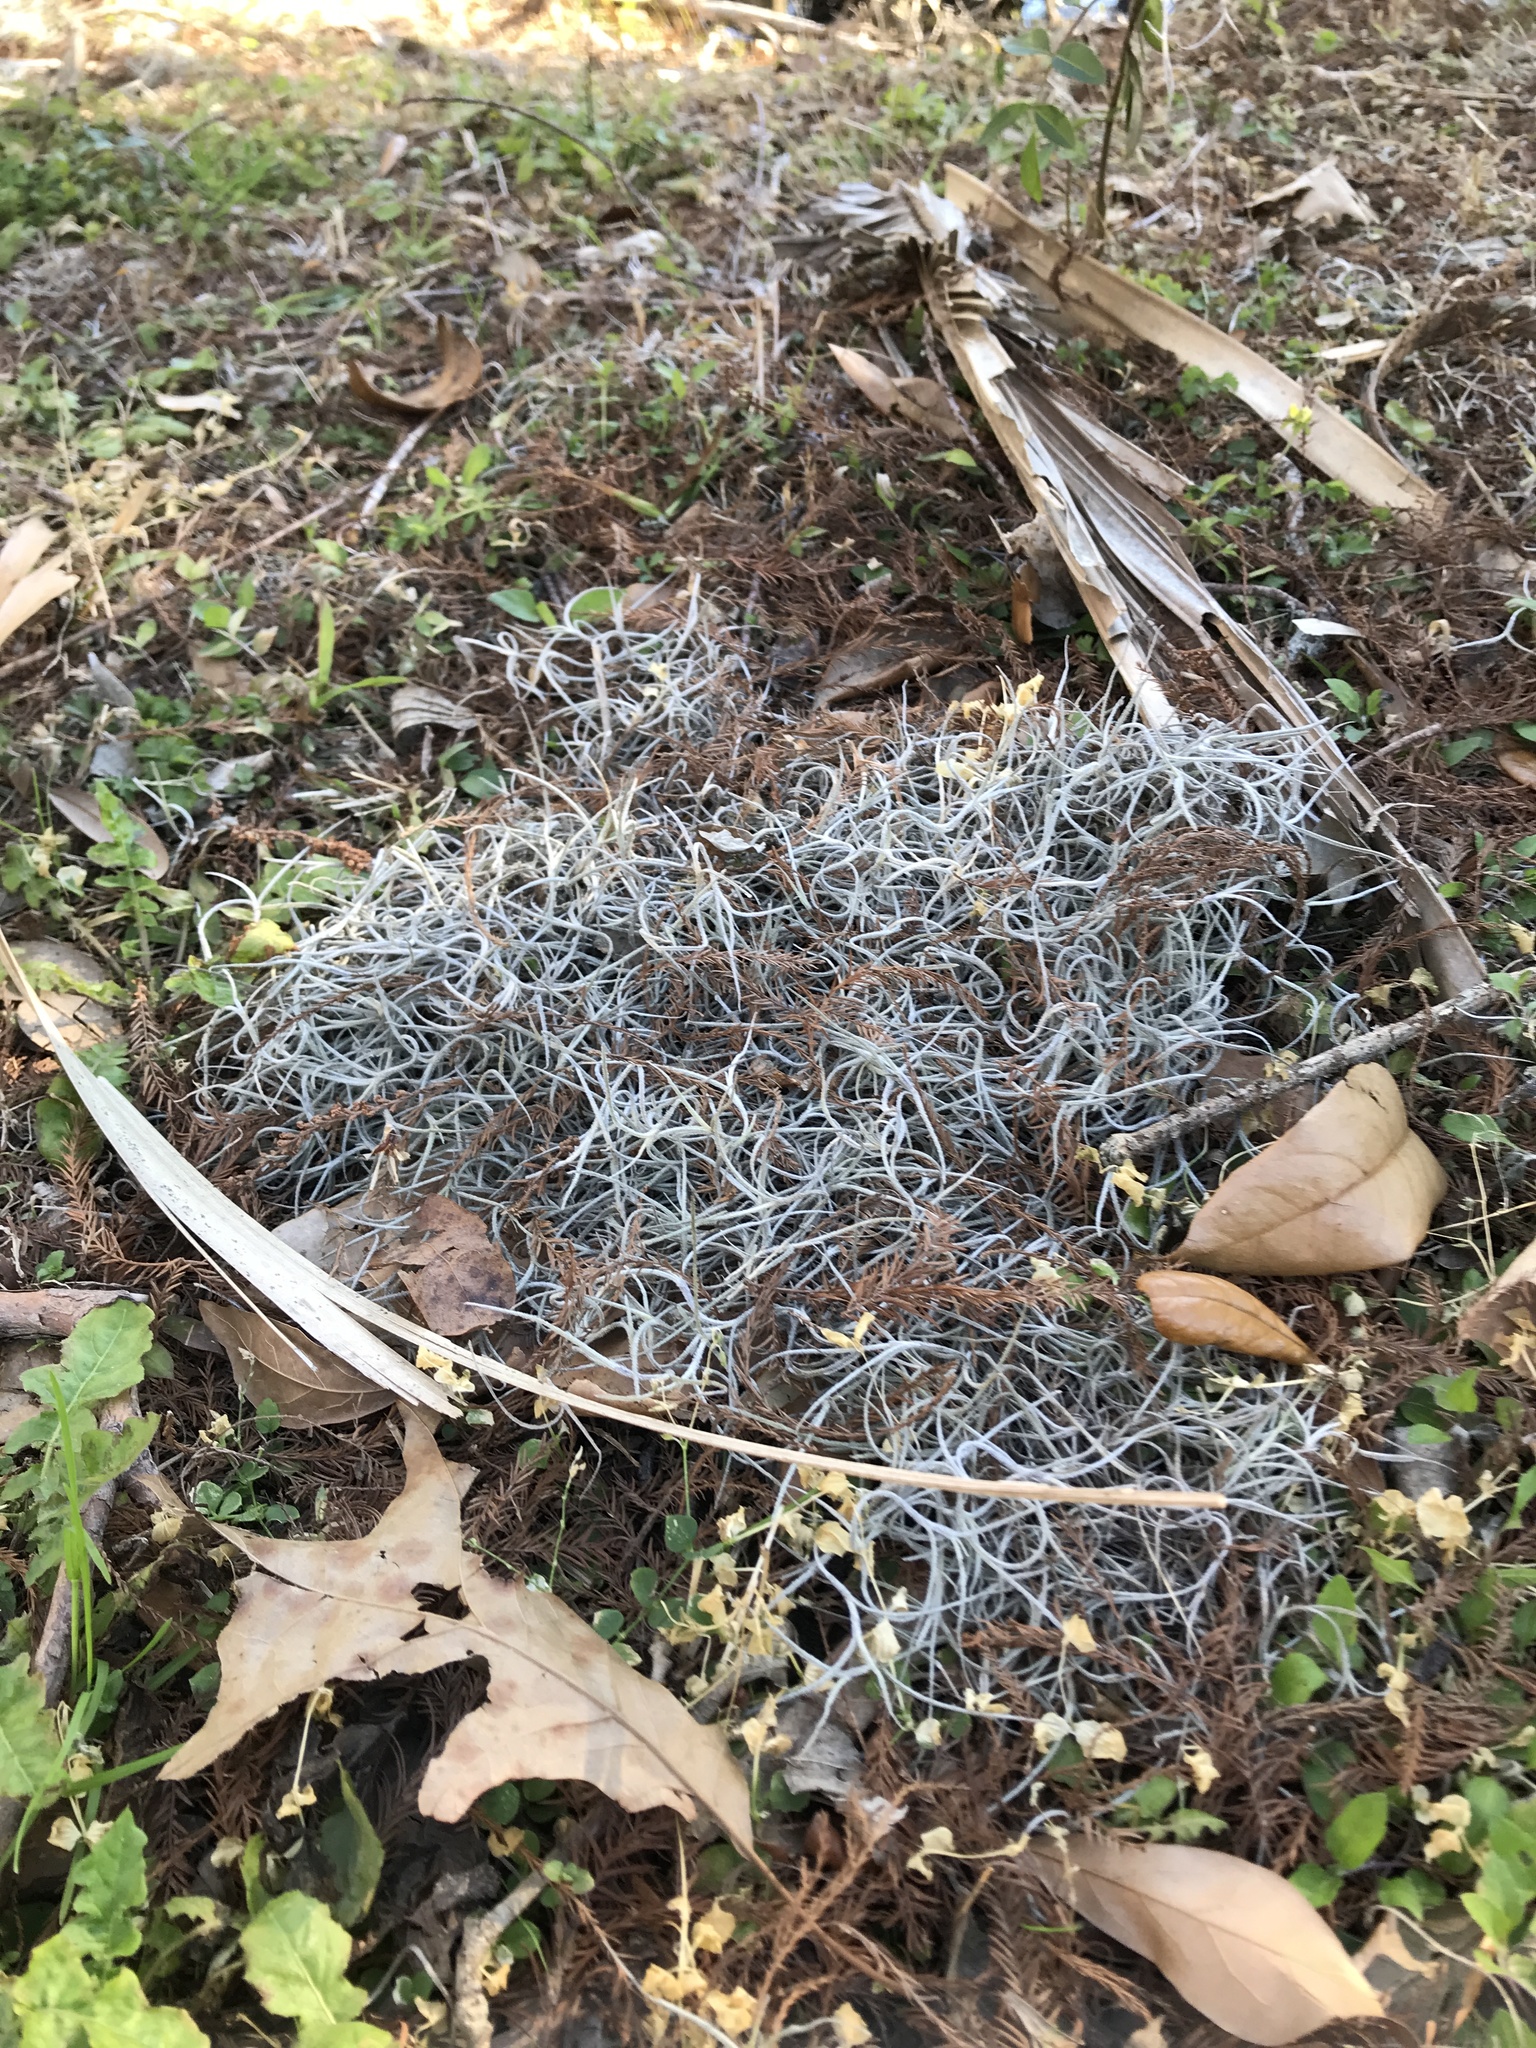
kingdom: Plantae
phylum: Tracheophyta
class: Liliopsida
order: Poales
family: Bromeliaceae
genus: Tillandsia
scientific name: Tillandsia usneoides
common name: Spanish moss
